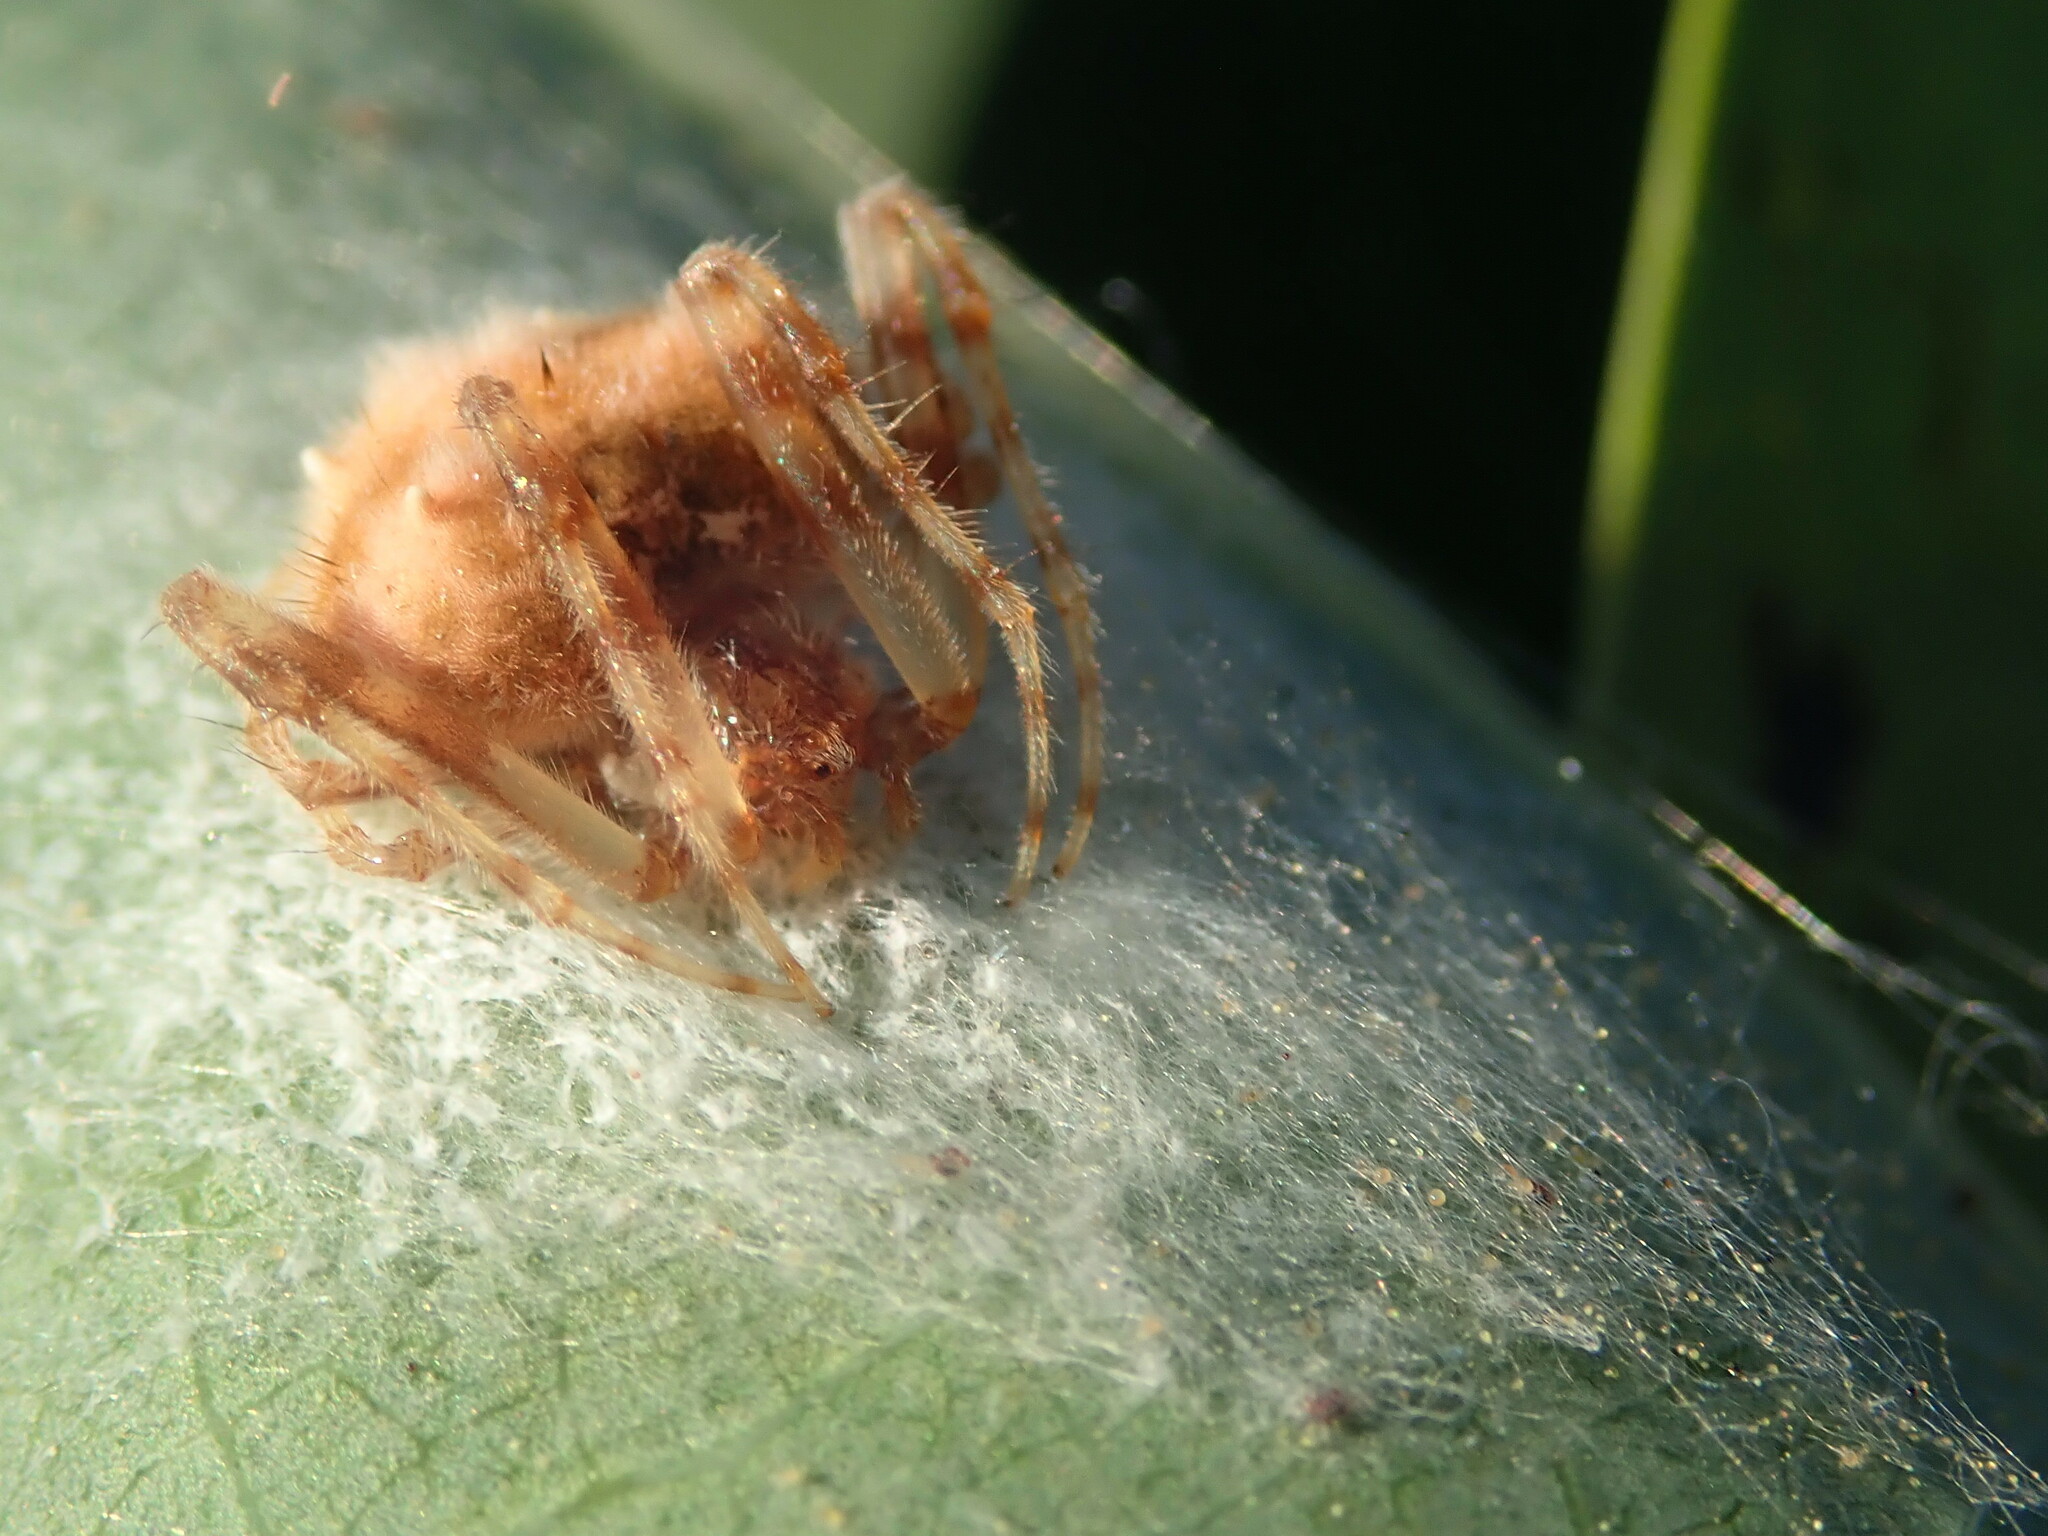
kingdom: Animalia
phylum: Arthropoda
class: Arachnida
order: Araneae
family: Araneidae
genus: Taczanowskia
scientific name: Taczanowskia sextuberculata
